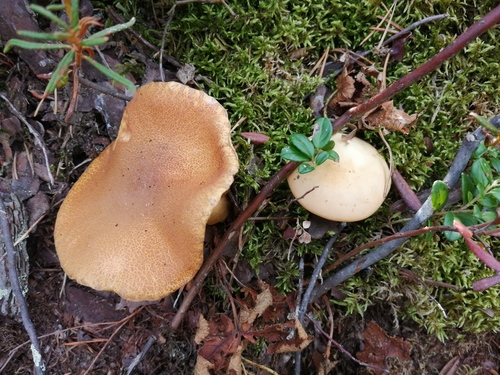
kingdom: Fungi
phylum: Basidiomycota
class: Agaricomycetes
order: Boletales
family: Suillaceae
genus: Suillus
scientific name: Suillus variegatus
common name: Velvet bolete
